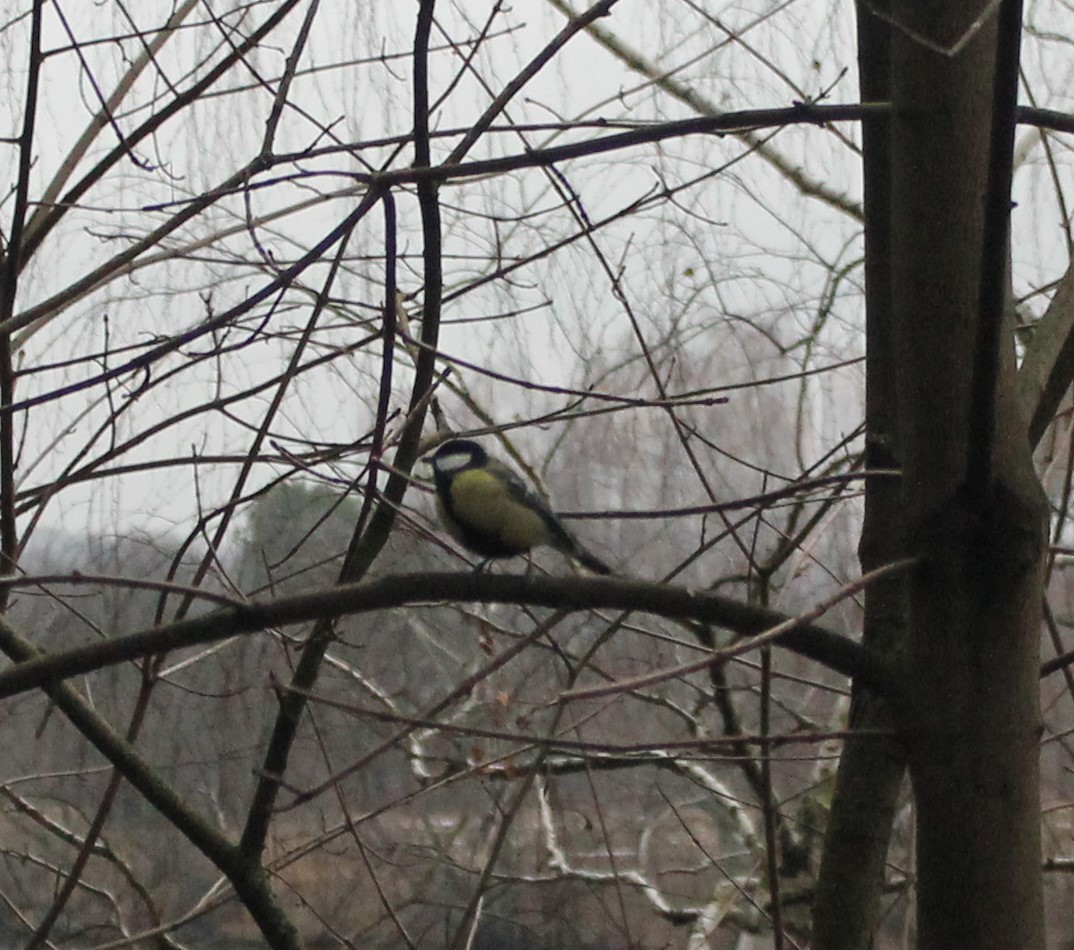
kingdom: Animalia
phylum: Chordata
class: Aves
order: Passeriformes
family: Paridae
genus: Parus
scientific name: Parus major
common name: Great tit
